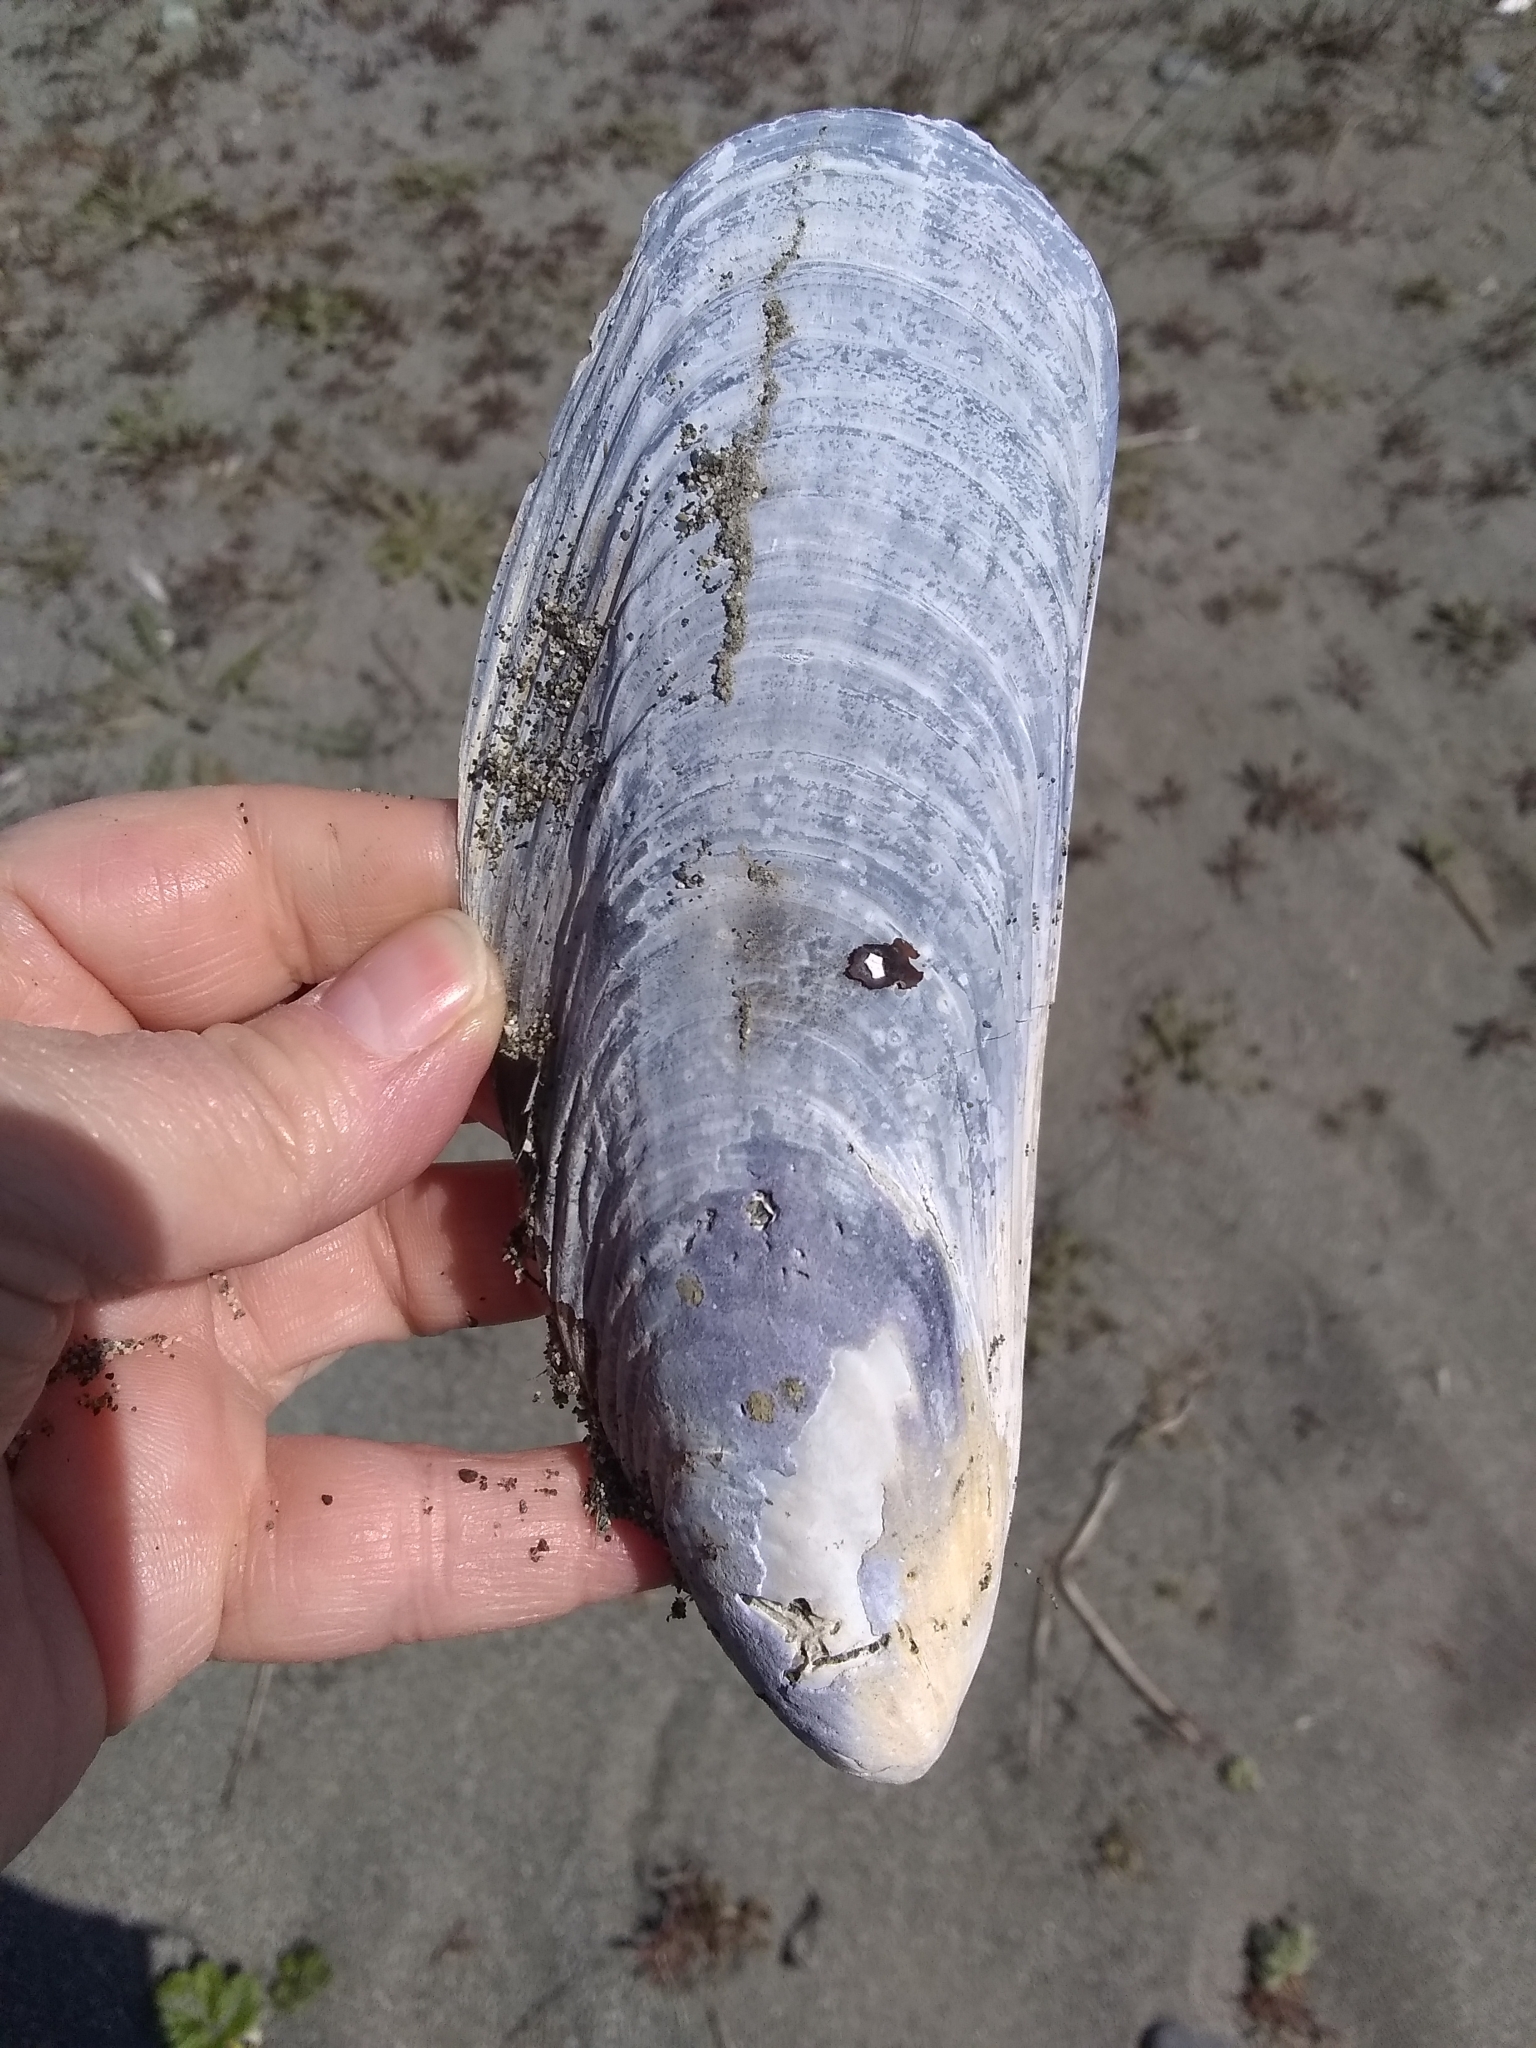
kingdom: Animalia
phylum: Mollusca
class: Bivalvia
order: Mytilida
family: Mytilidae
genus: Mytilus
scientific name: Mytilus californianus
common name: California mussel
